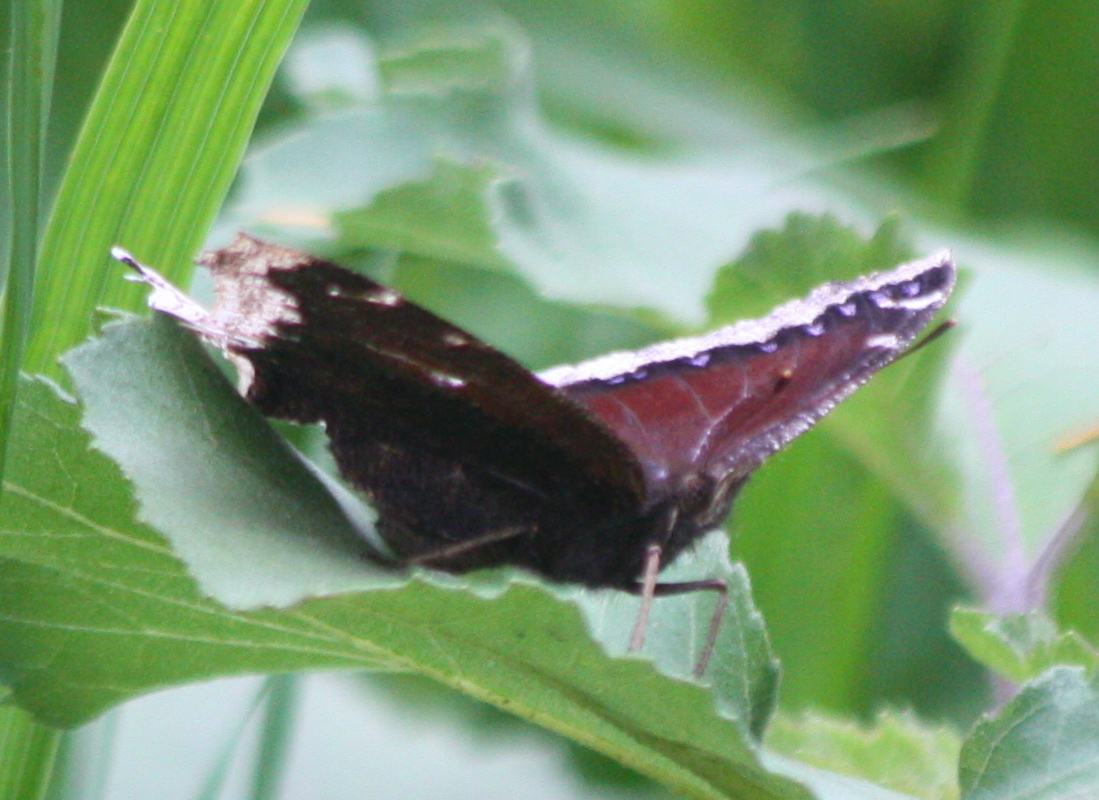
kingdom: Animalia
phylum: Arthropoda
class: Insecta
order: Lepidoptera
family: Nymphalidae
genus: Nymphalis
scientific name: Nymphalis antiopa
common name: Camberwell beauty
